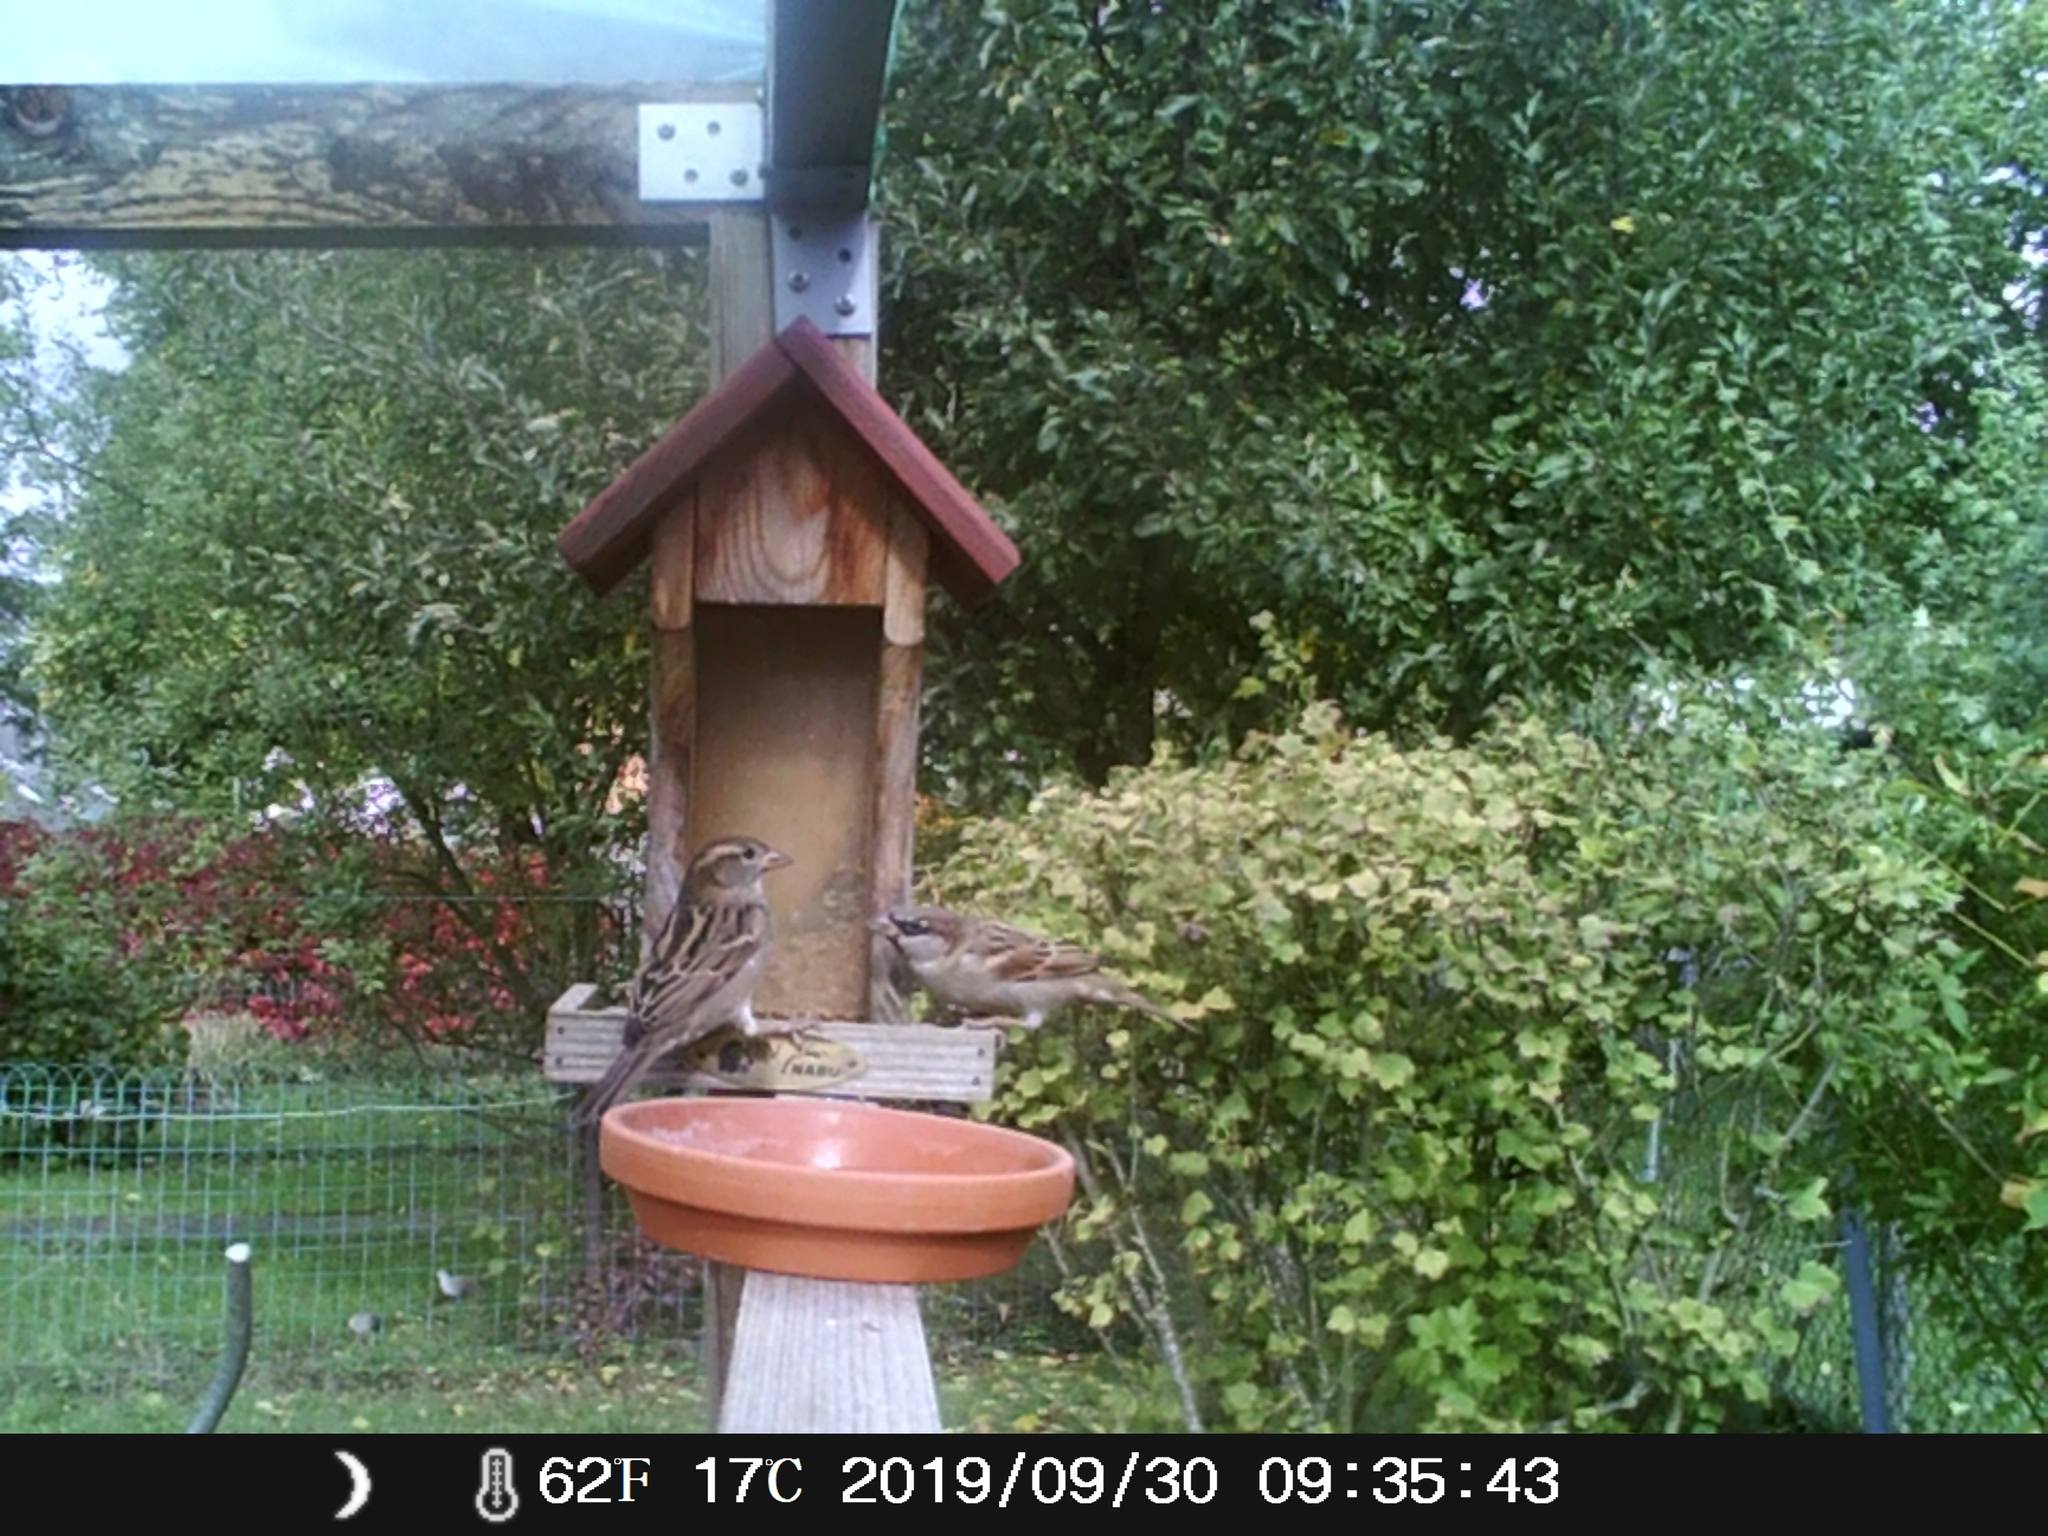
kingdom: Animalia
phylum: Chordata
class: Aves
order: Passeriformes
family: Passeridae
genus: Passer
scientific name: Passer domesticus
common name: House sparrow
